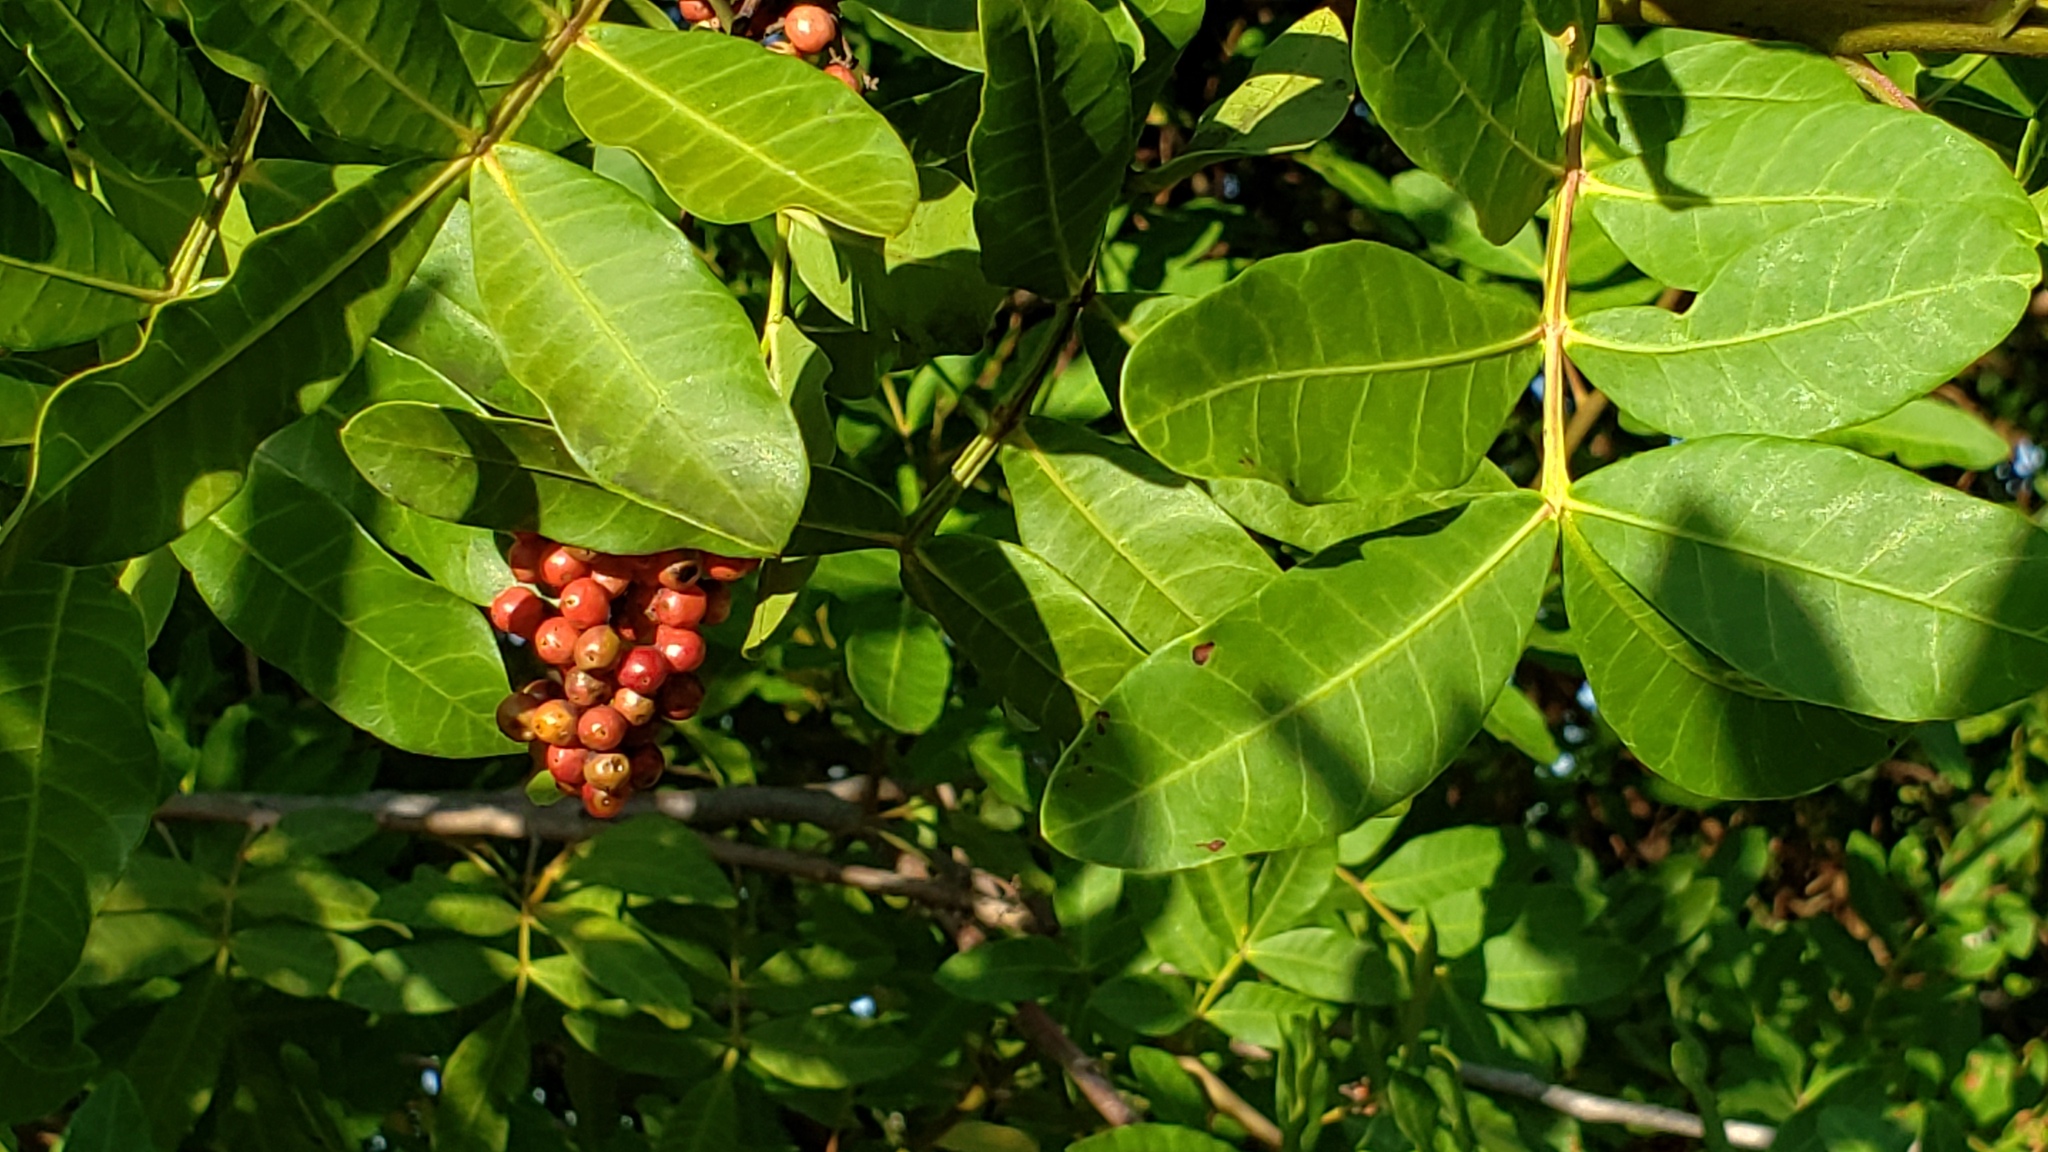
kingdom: Plantae
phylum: Tracheophyta
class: Magnoliopsida
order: Sapindales
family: Anacardiaceae
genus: Schinus
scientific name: Schinus terebinthifolia
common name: Brazilian peppertree
